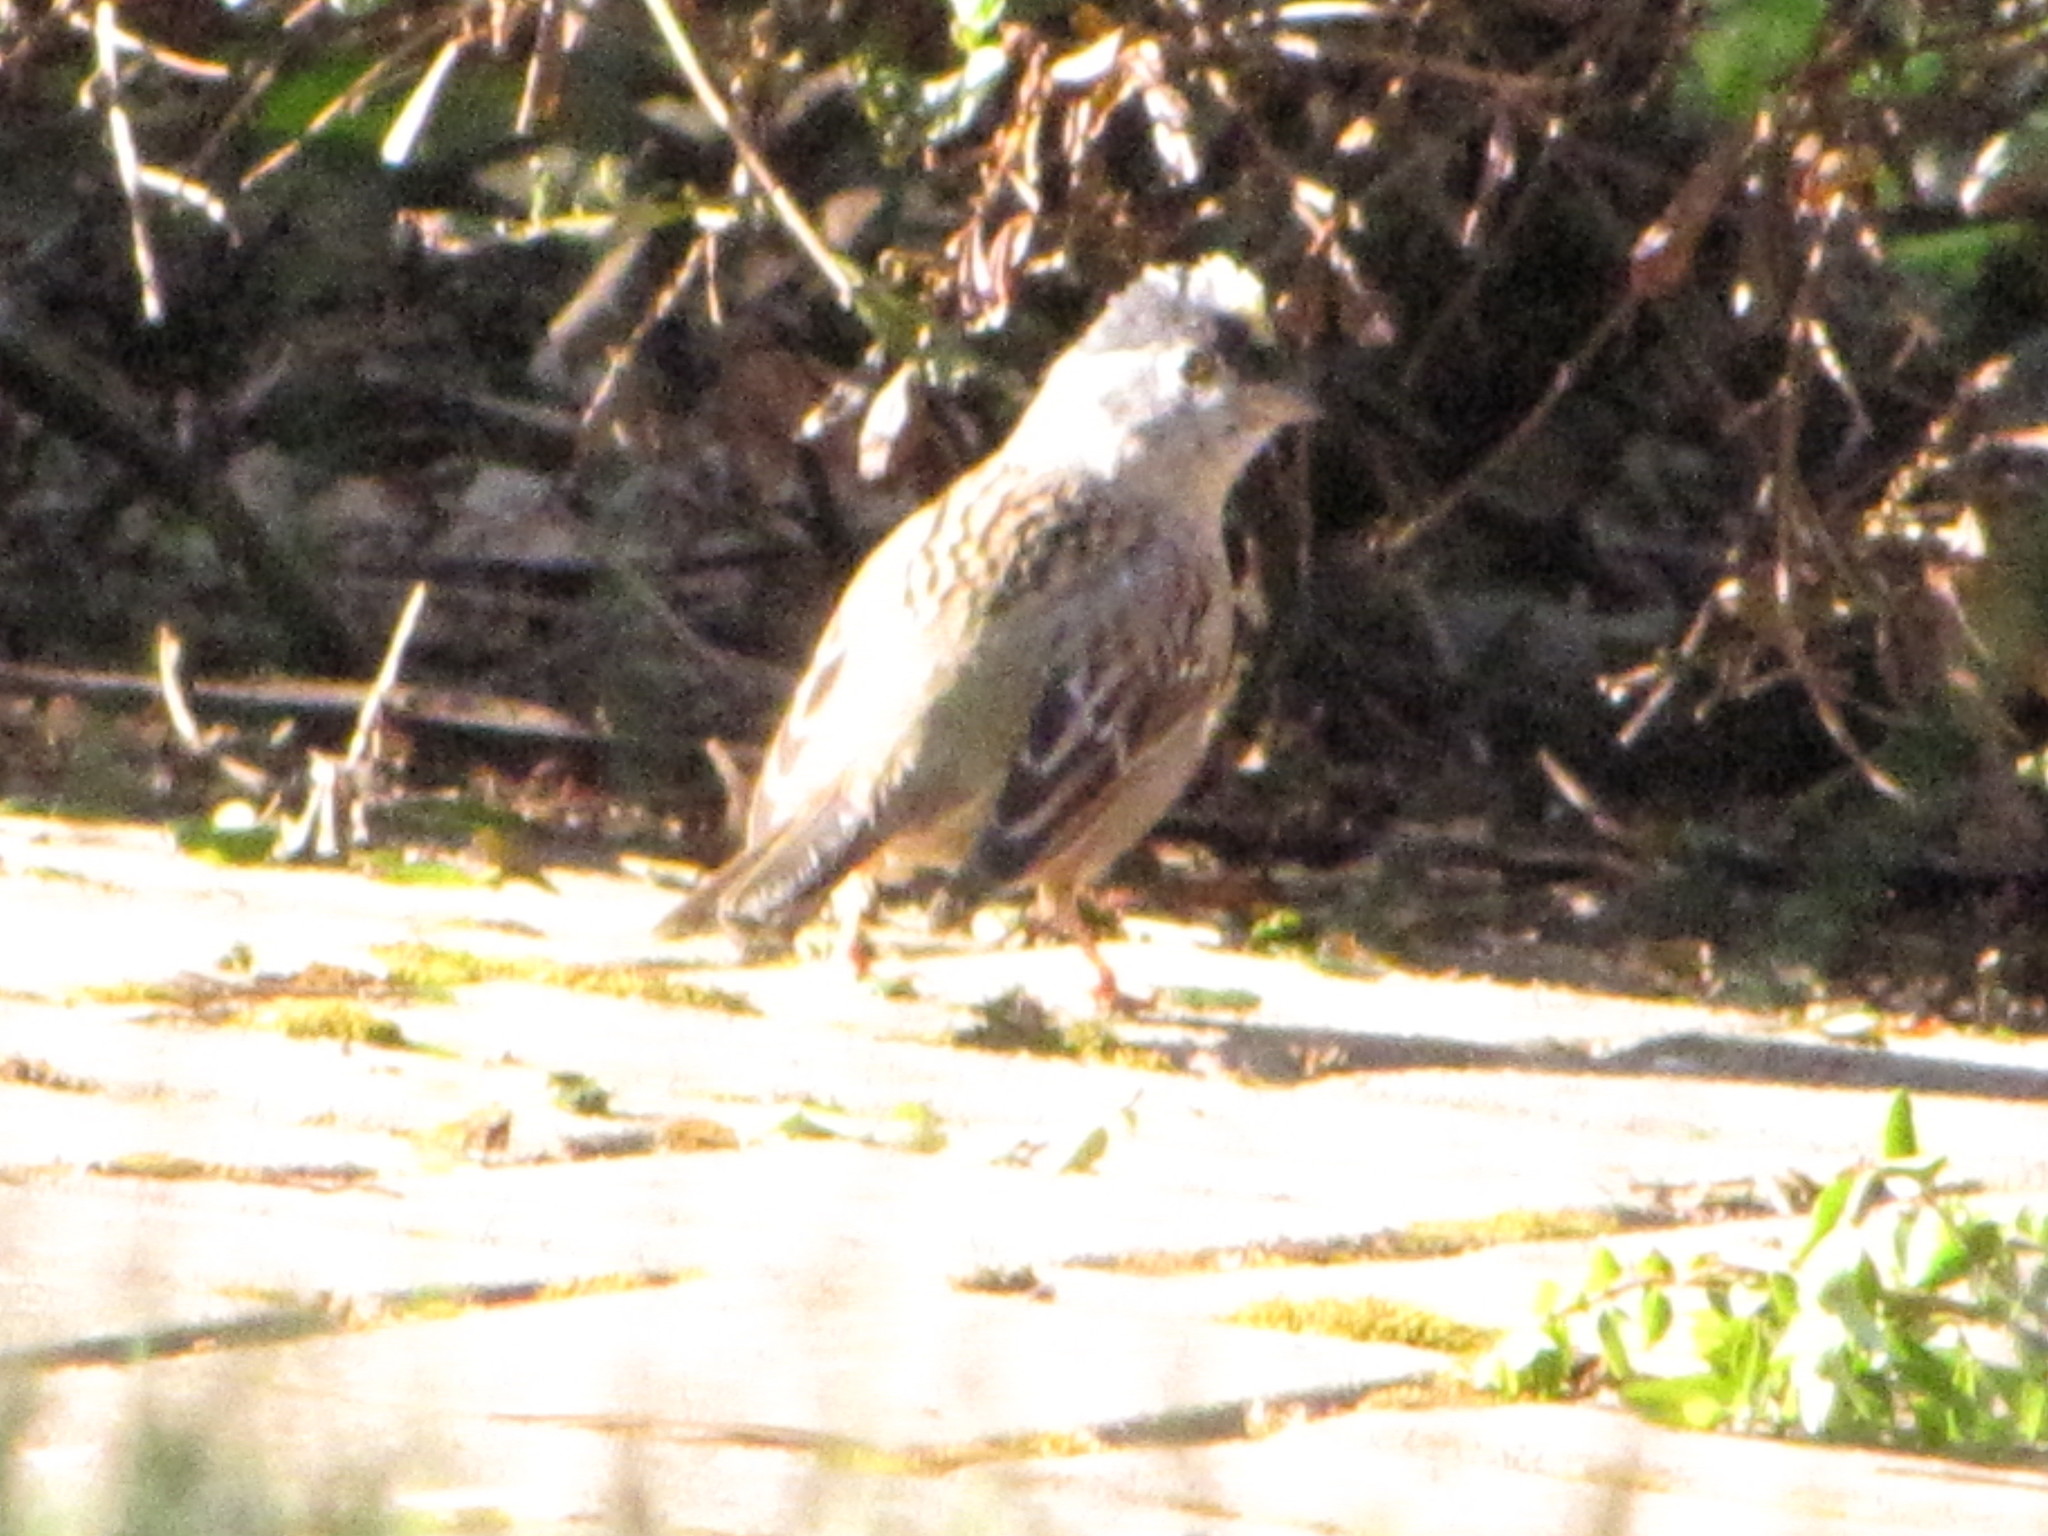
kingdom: Animalia
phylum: Chordata
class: Aves
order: Passeriformes
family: Passerellidae
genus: Zonotrichia
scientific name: Zonotrichia atricapilla
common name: Golden-crowned sparrow
